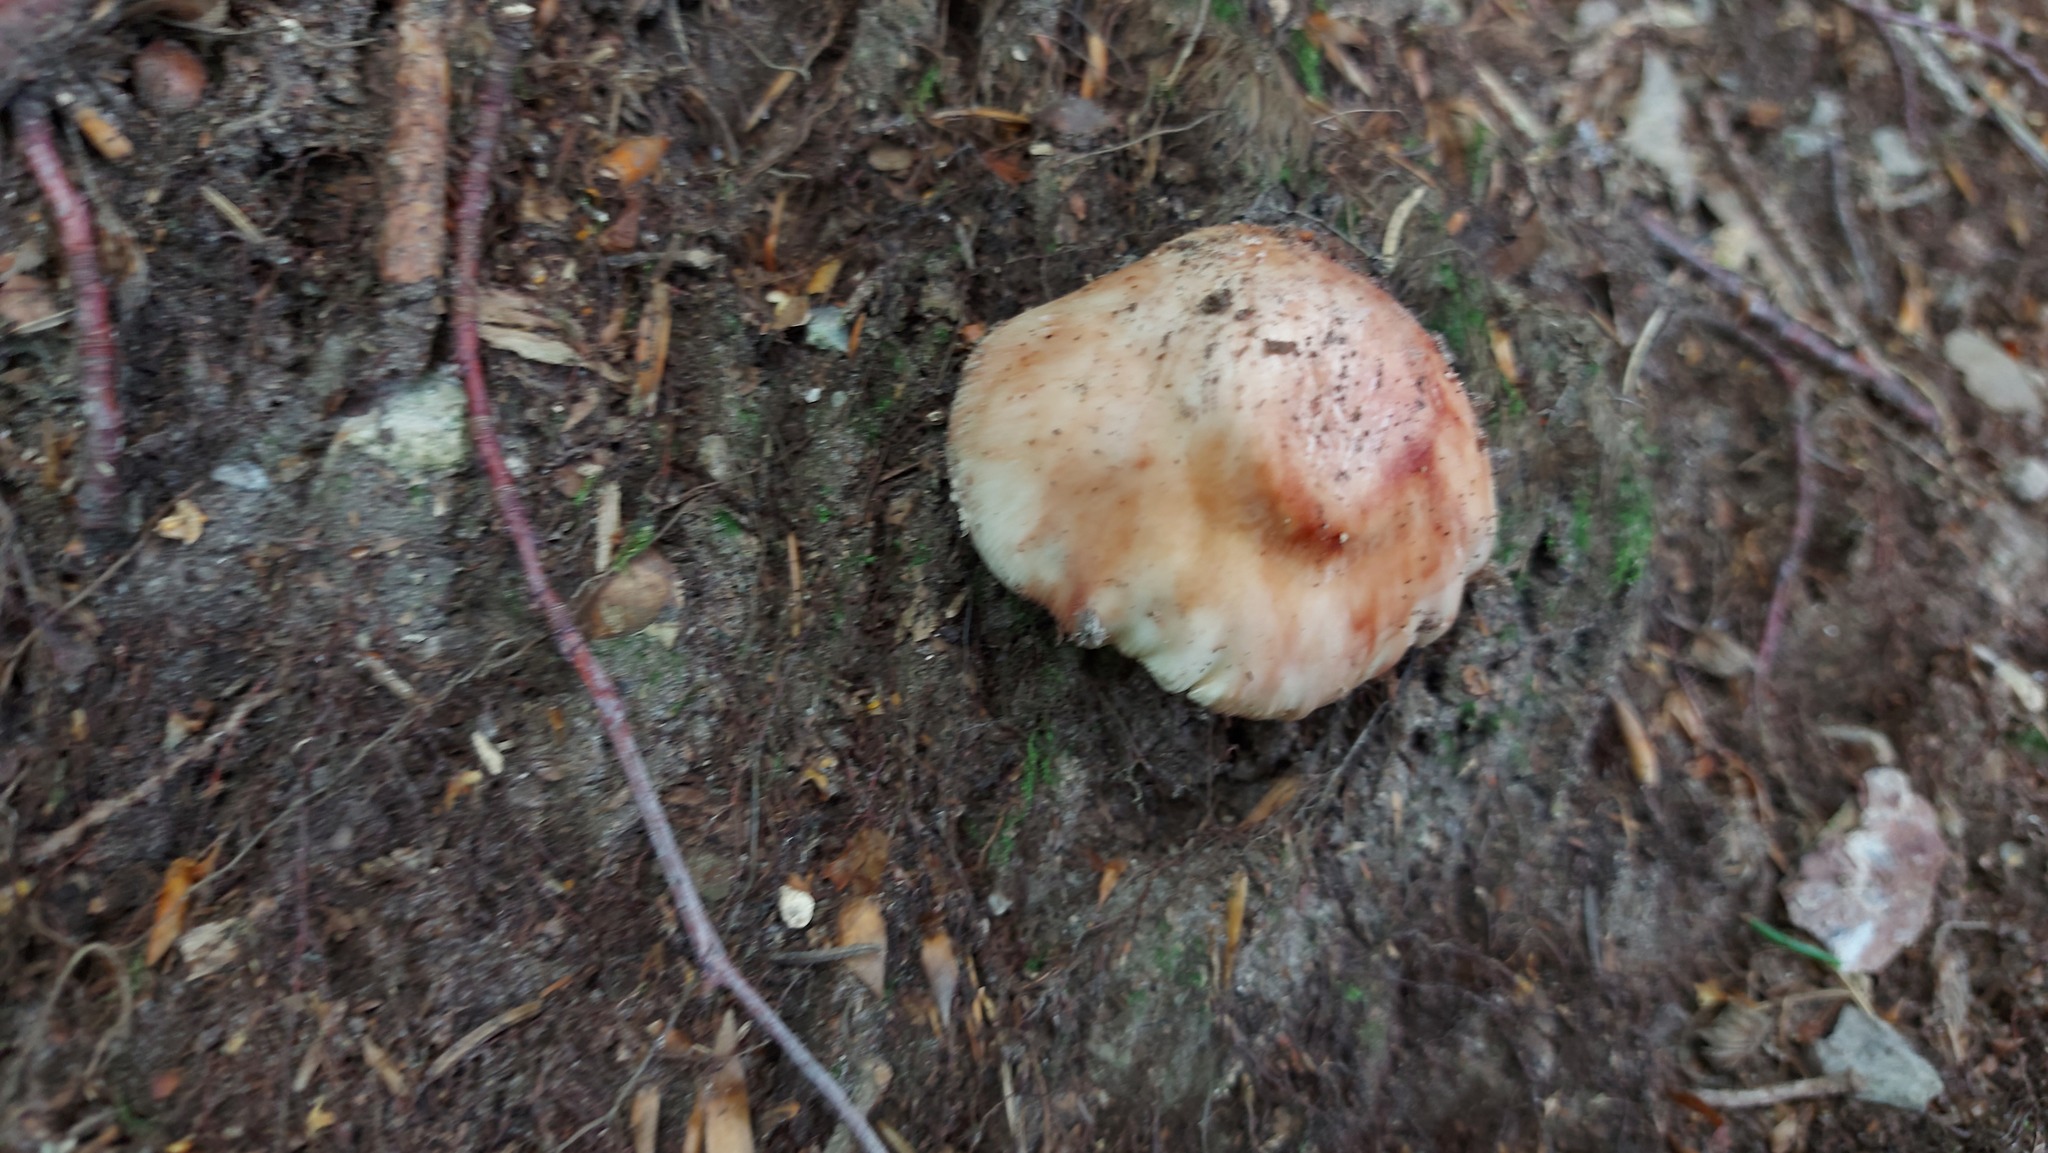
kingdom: Fungi
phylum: Basidiomycota
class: Agaricomycetes
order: Agaricales
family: Amanitaceae
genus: Amanita
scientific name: Amanita rubescens
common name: Blusher
